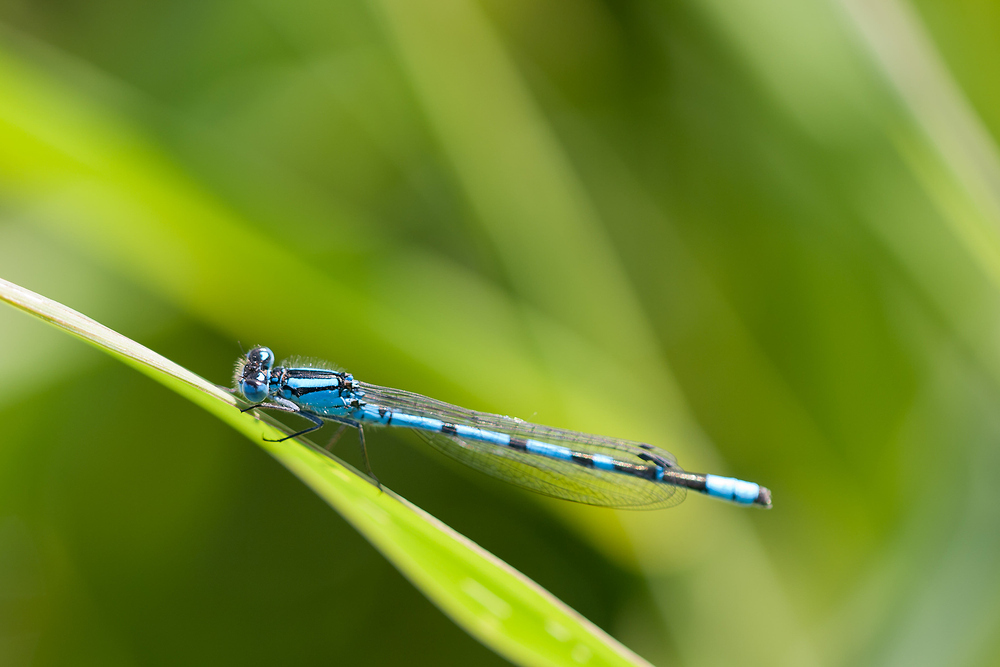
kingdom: Animalia
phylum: Arthropoda
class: Insecta
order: Odonata
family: Coenagrionidae
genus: Enallagma
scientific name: Enallagma cyathigerum
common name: Common blue damselfly
